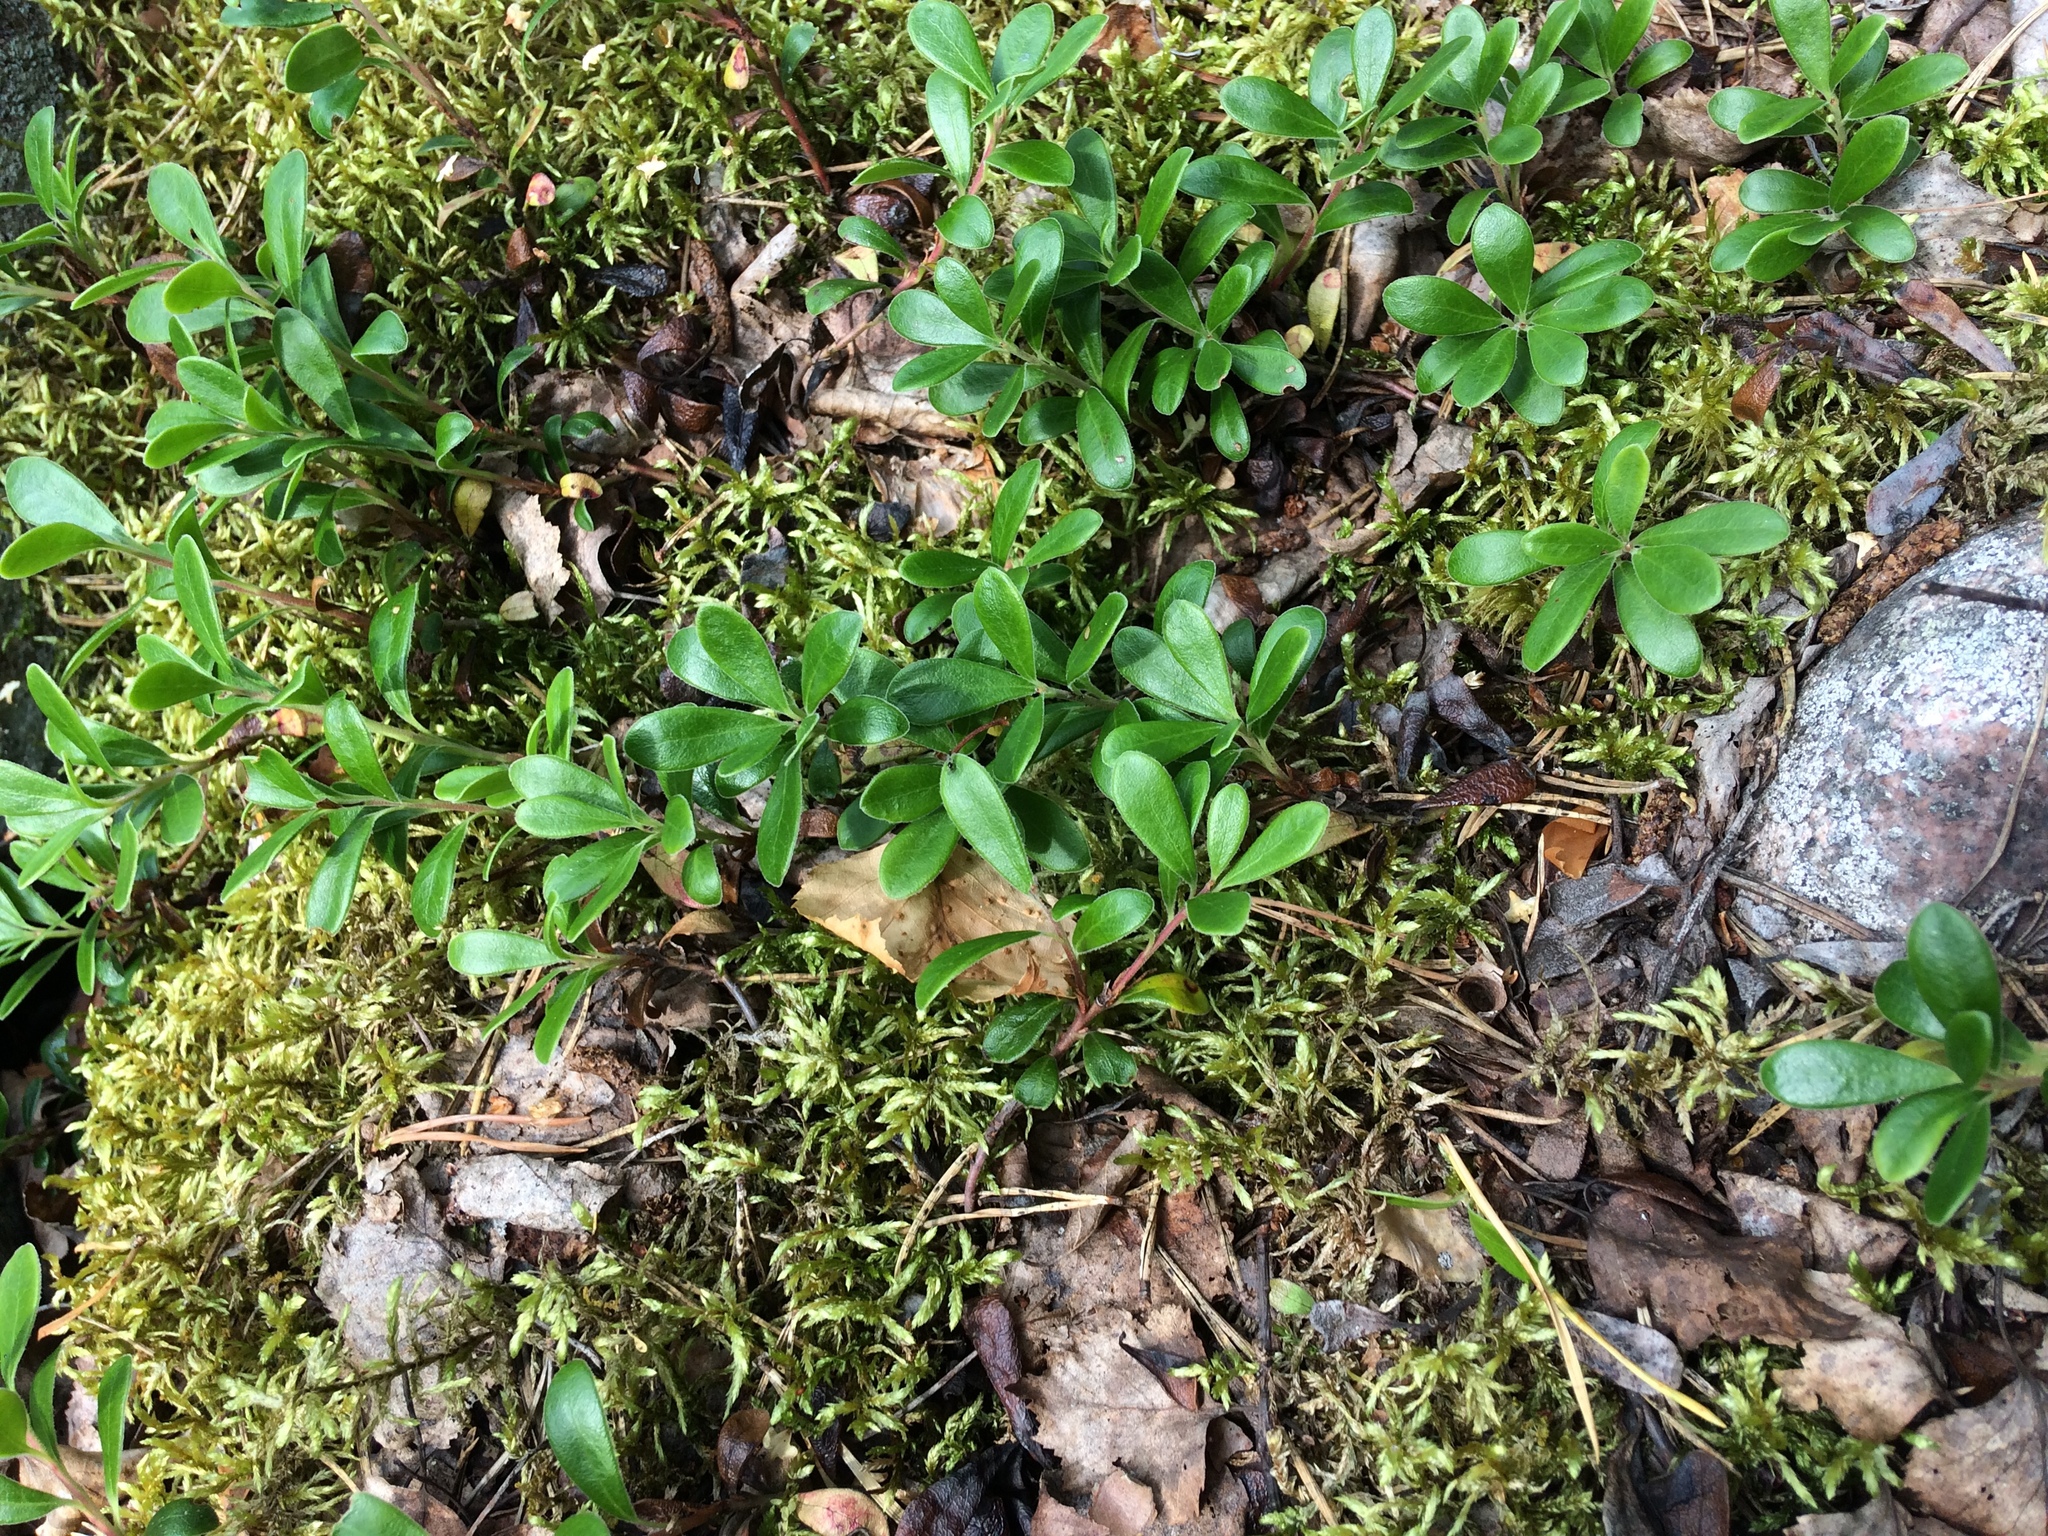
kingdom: Plantae
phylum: Tracheophyta
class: Magnoliopsida
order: Ericales
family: Ericaceae
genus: Arctostaphylos
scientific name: Arctostaphylos uva-ursi
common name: Bearberry
